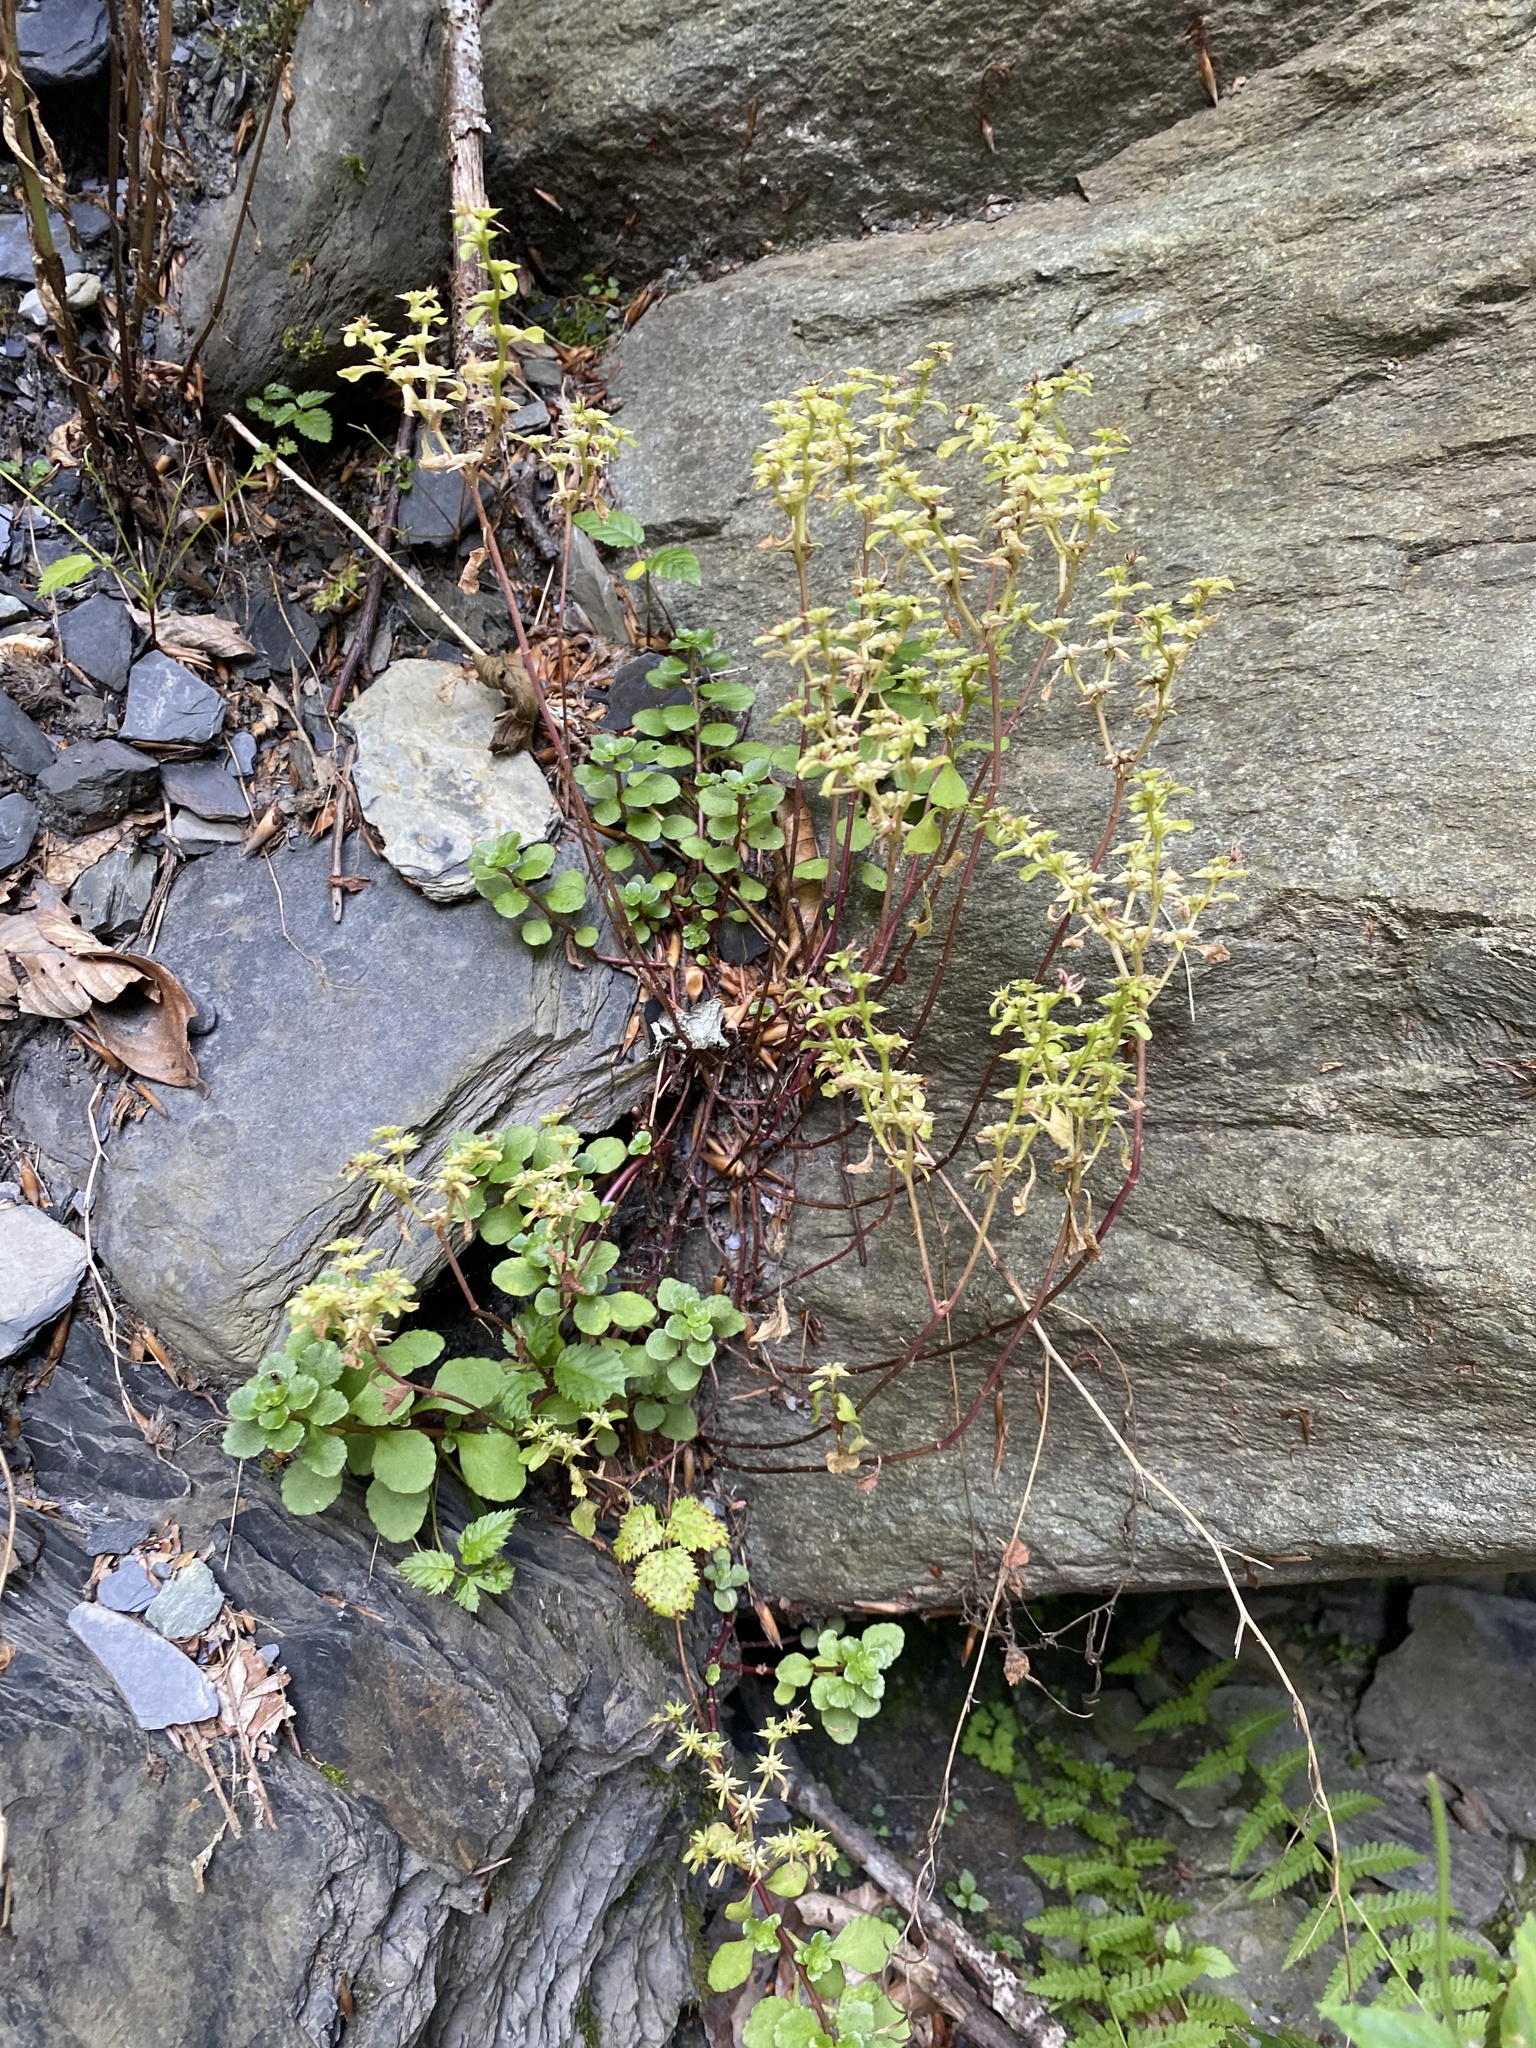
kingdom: Plantae
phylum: Tracheophyta
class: Magnoliopsida
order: Saxifragales
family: Crassulaceae
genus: Phedimus
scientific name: Phedimus stolonifer
